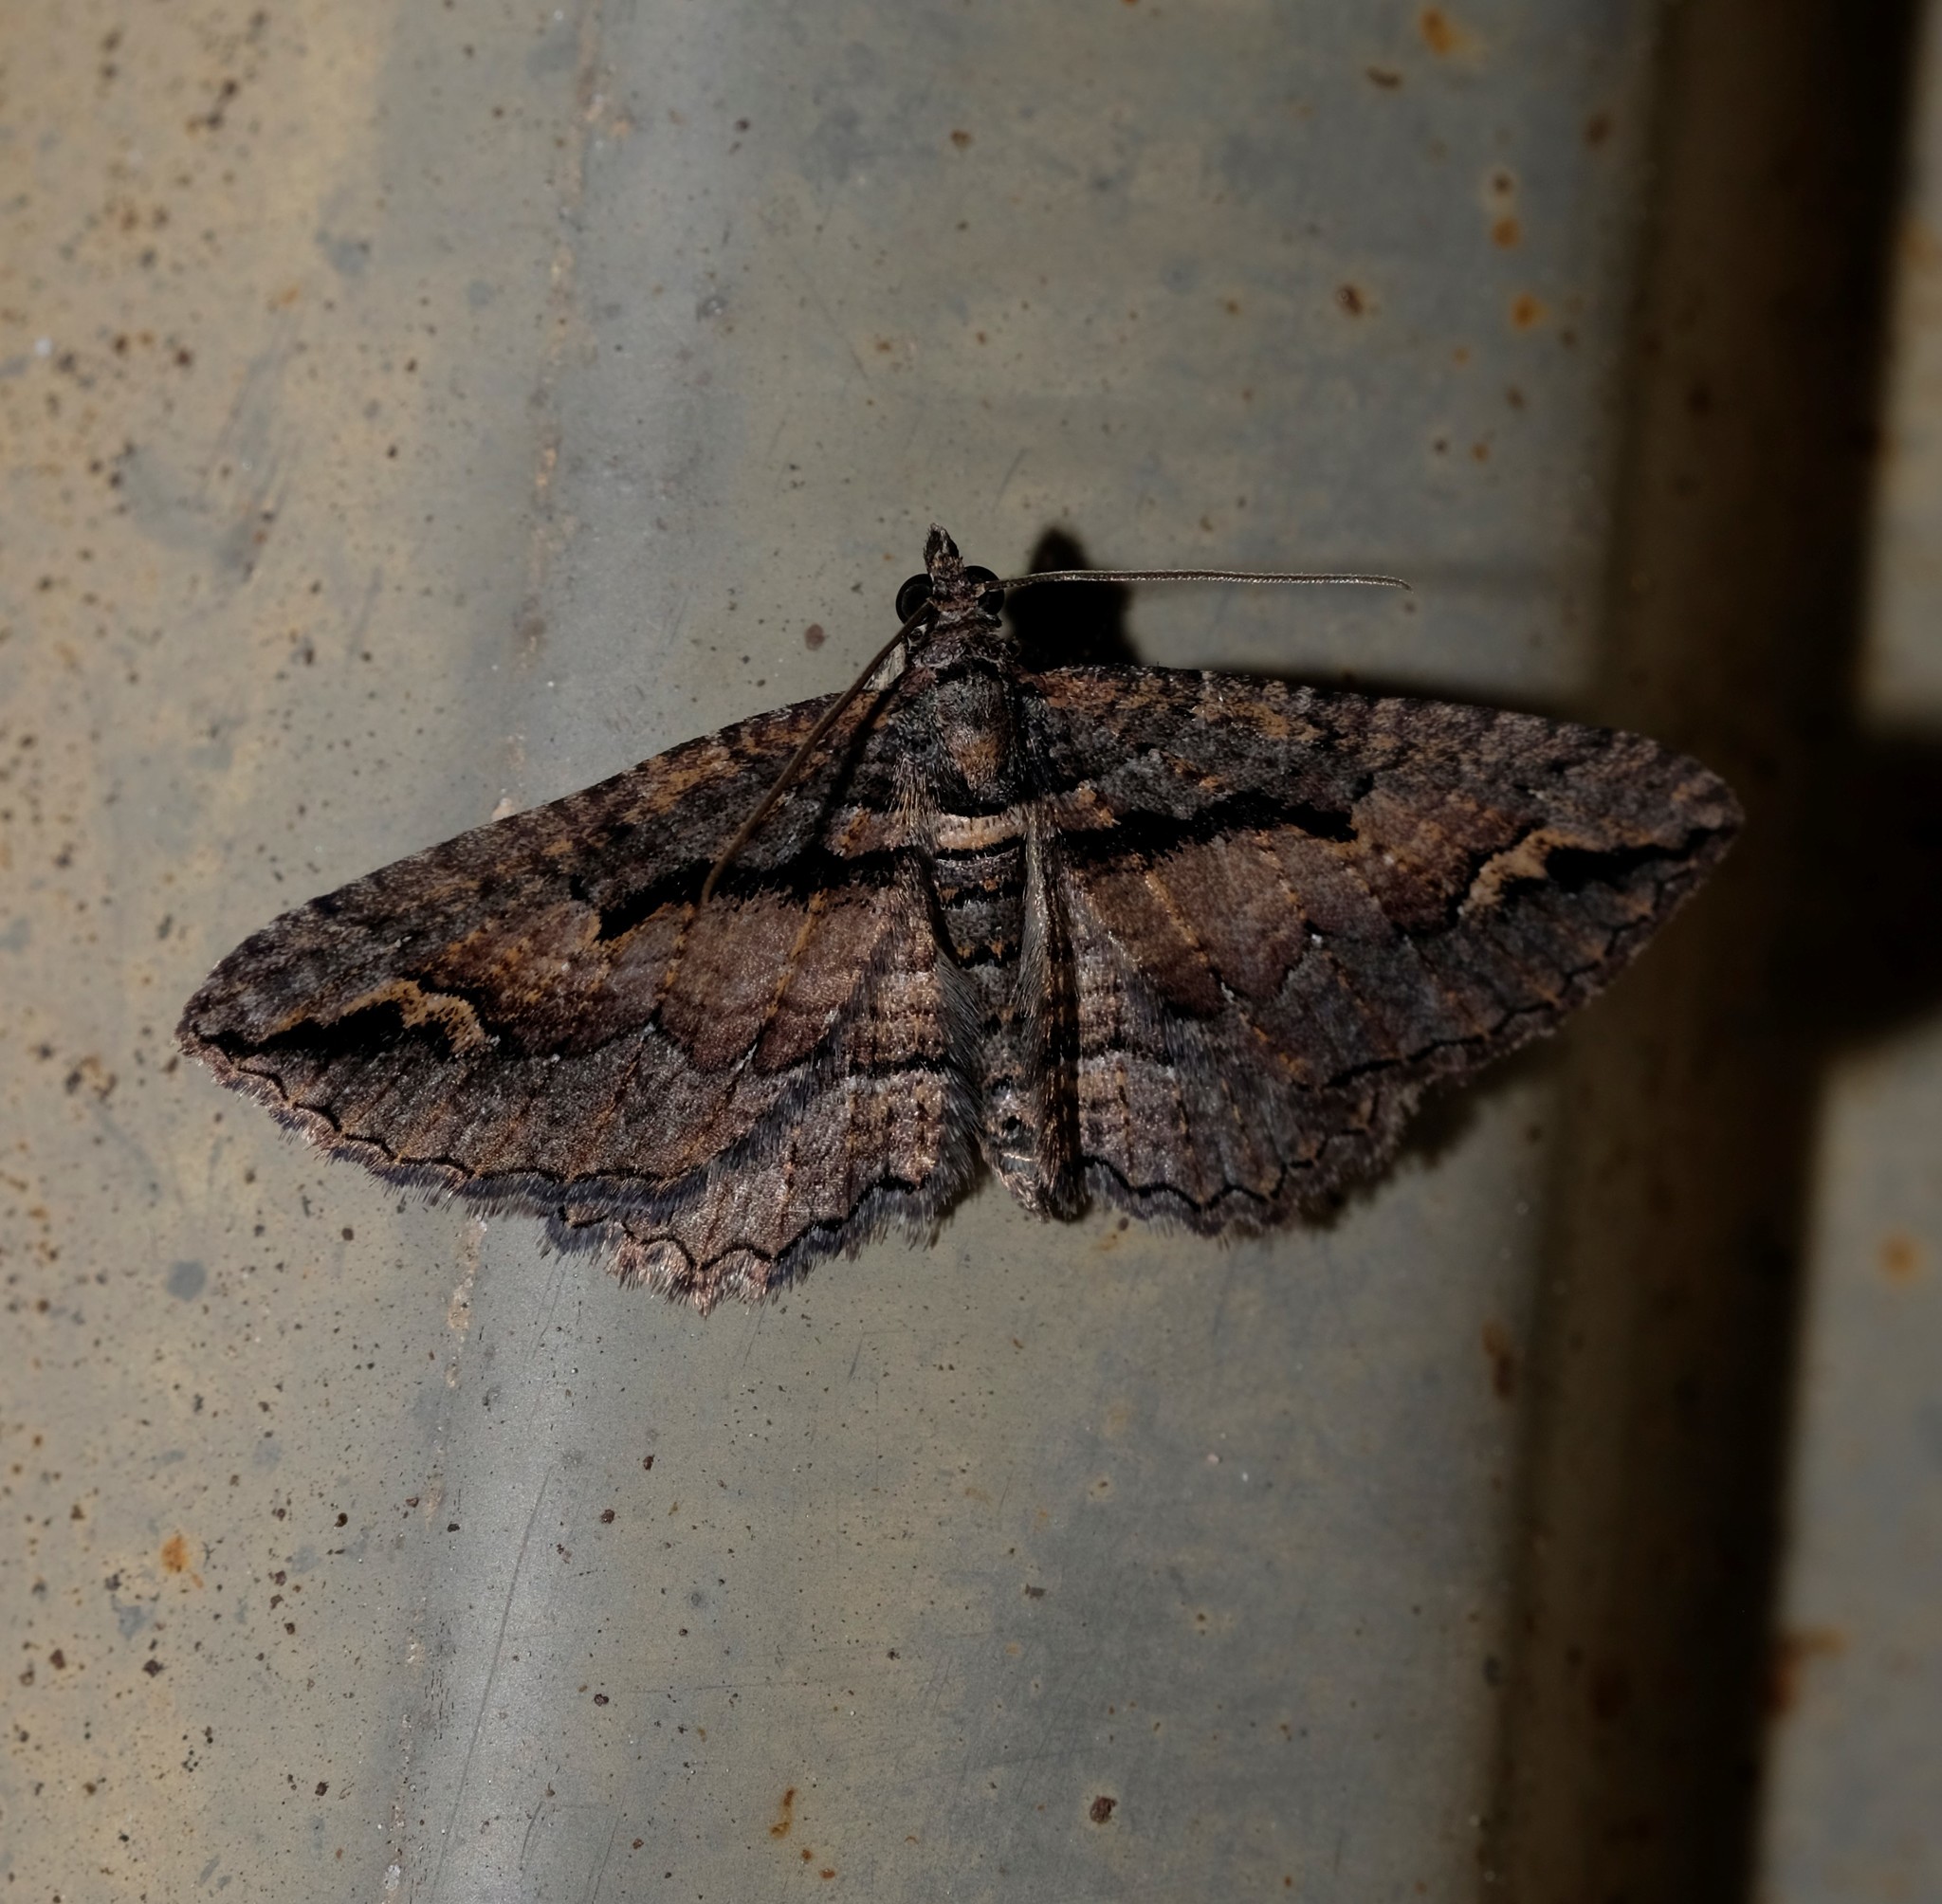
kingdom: Animalia
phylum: Arthropoda
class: Insecta
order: Lepidoptera
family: Geometridae
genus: Chrysolarentia
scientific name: Chrysolarentia plagiocausta
